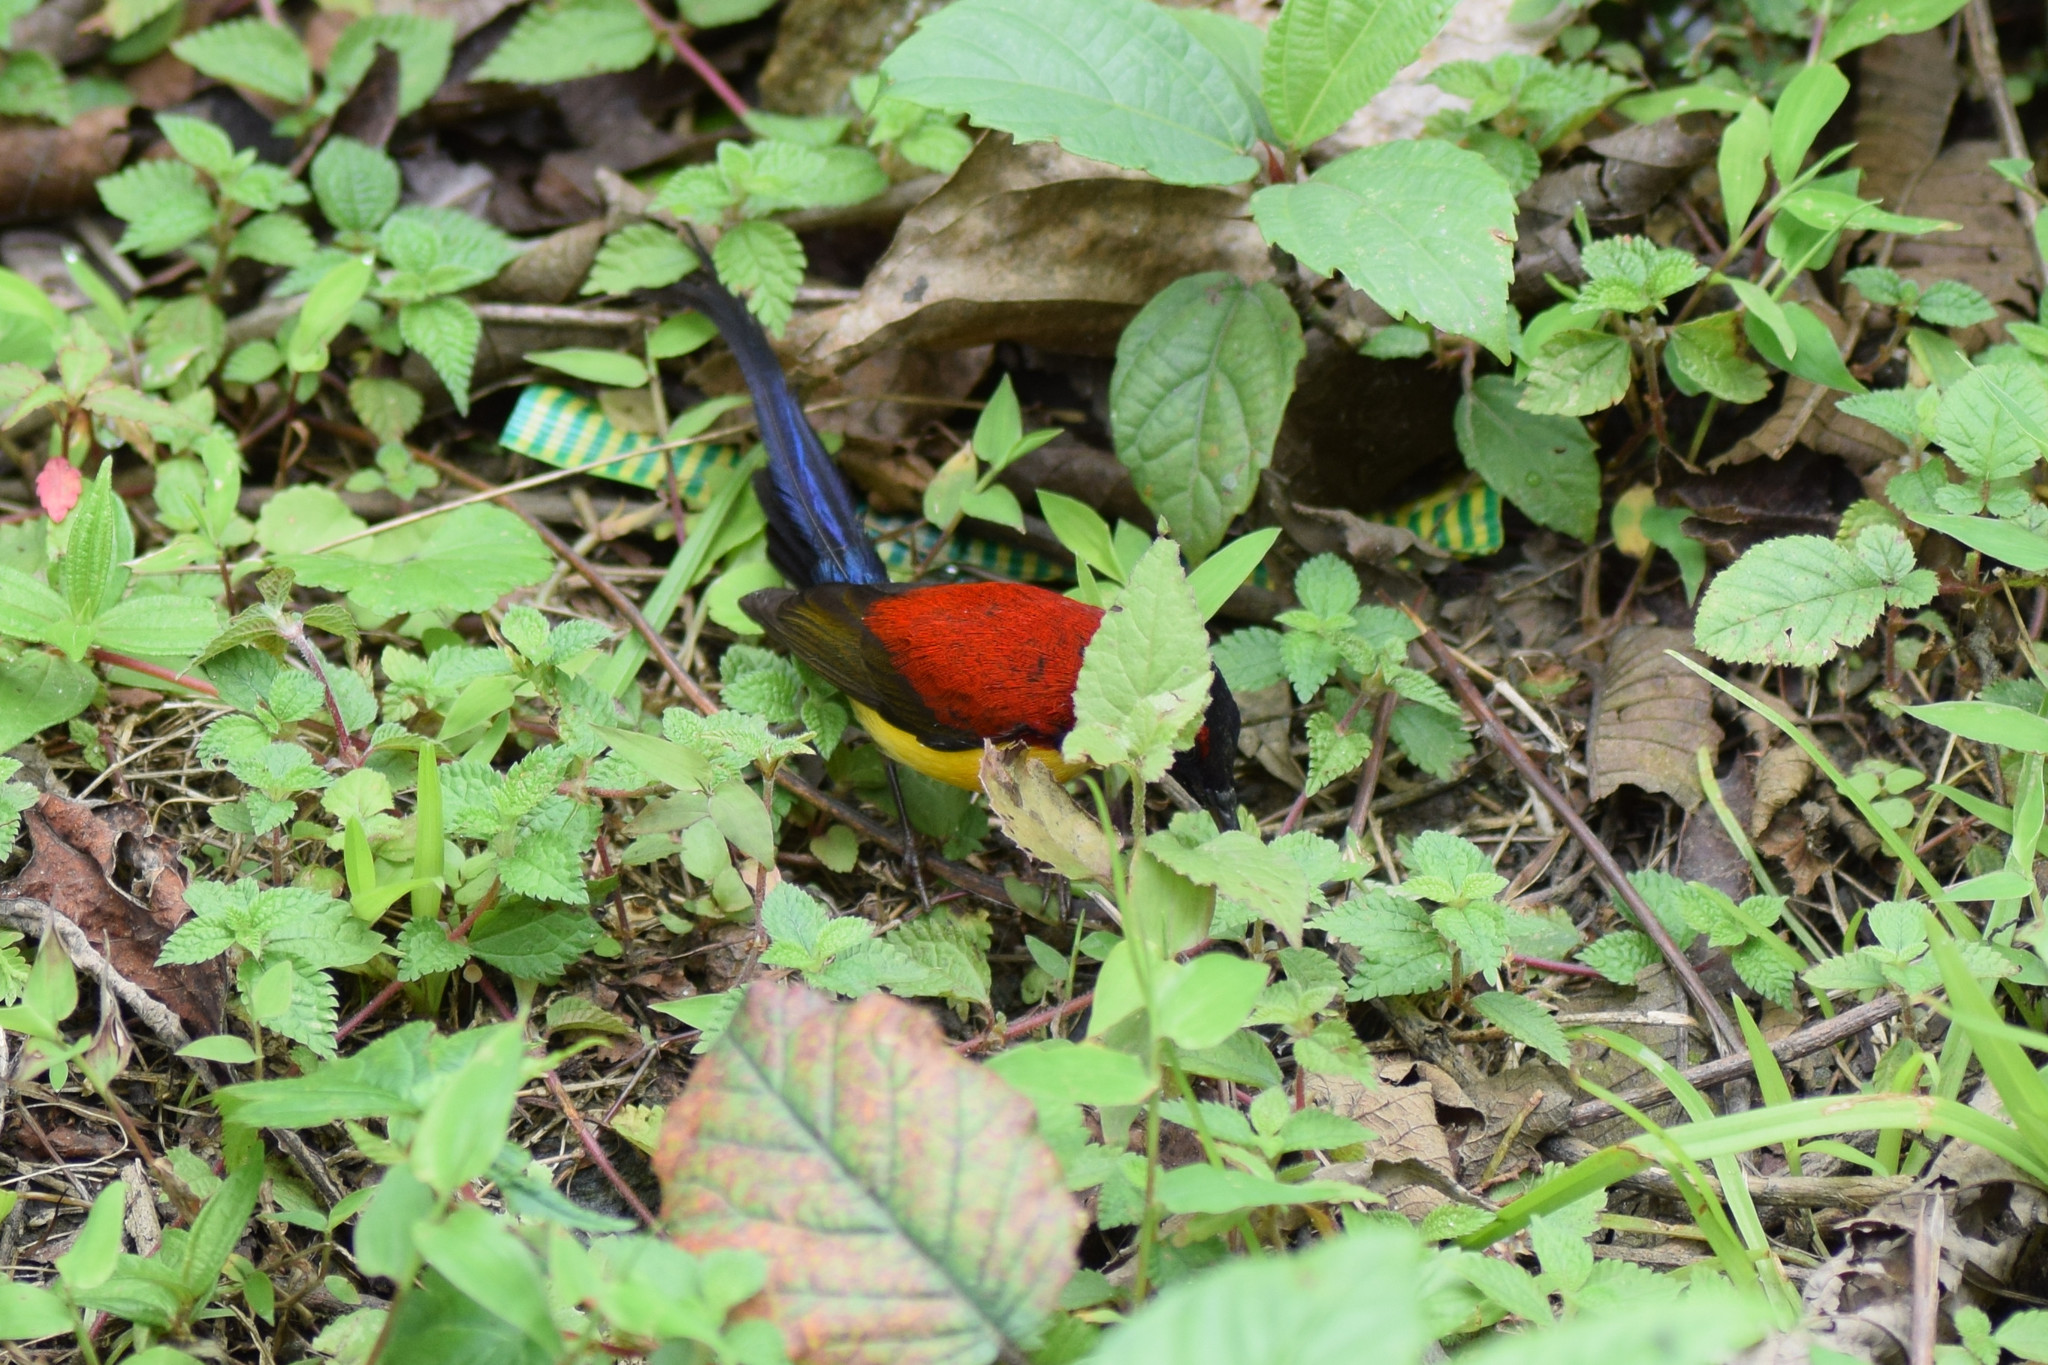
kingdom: Animalia
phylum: Chordata
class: Aves
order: Passeriformes
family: Nectariniidae
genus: Aethopyga
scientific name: Aethopyga gouldiae
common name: Mrs. gould's sunbird
